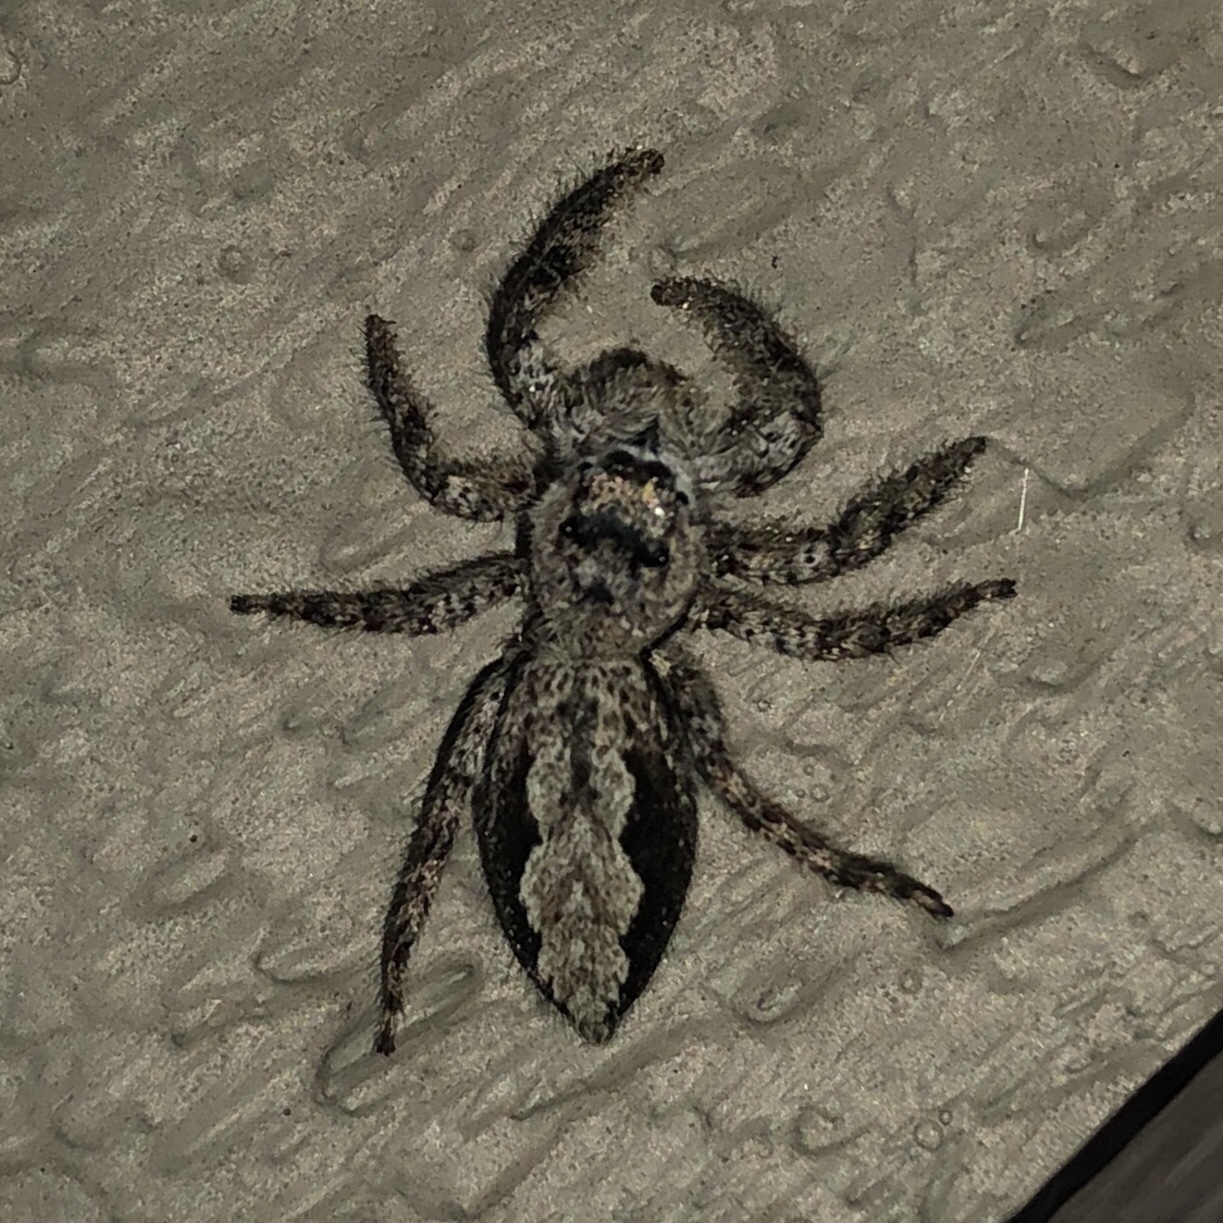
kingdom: Animalia
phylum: Arthropoda
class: Arachnida
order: Araneae
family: Salticidae
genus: Platycryptus
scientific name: Platycryptus undatus
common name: Tan jumping spider
